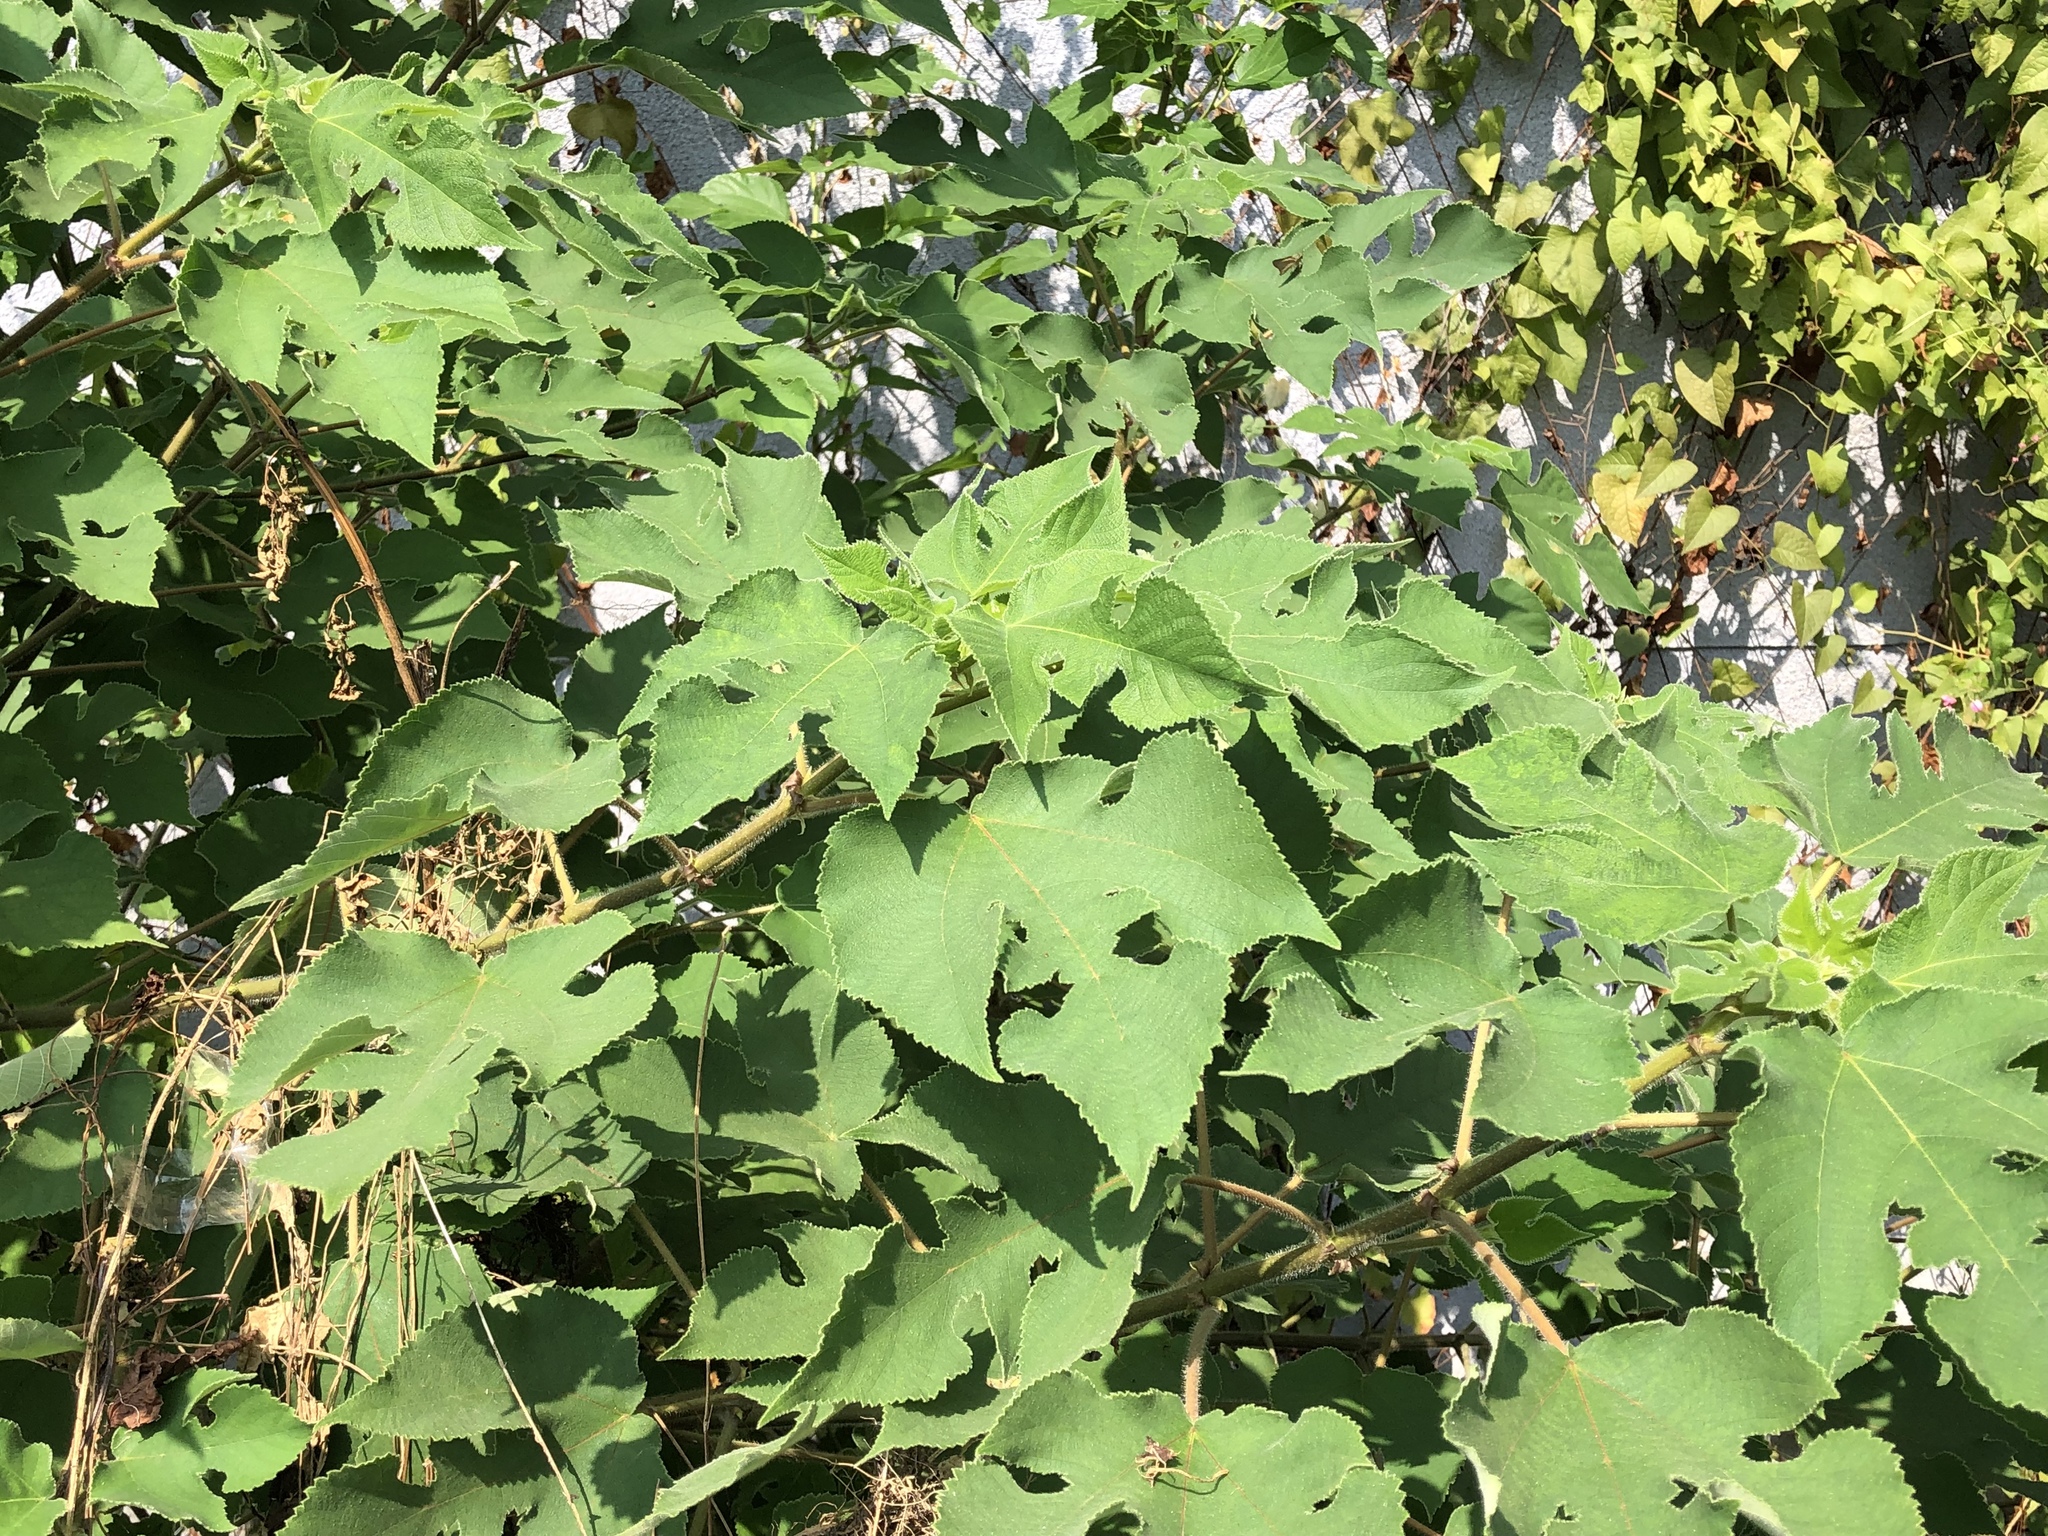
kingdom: Plantae
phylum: Tracheophyta
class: Magnoliopsida
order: Rosales
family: Moraceae
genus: Broussonetia
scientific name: Broussonetia papyrifera
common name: Paper mulberry
